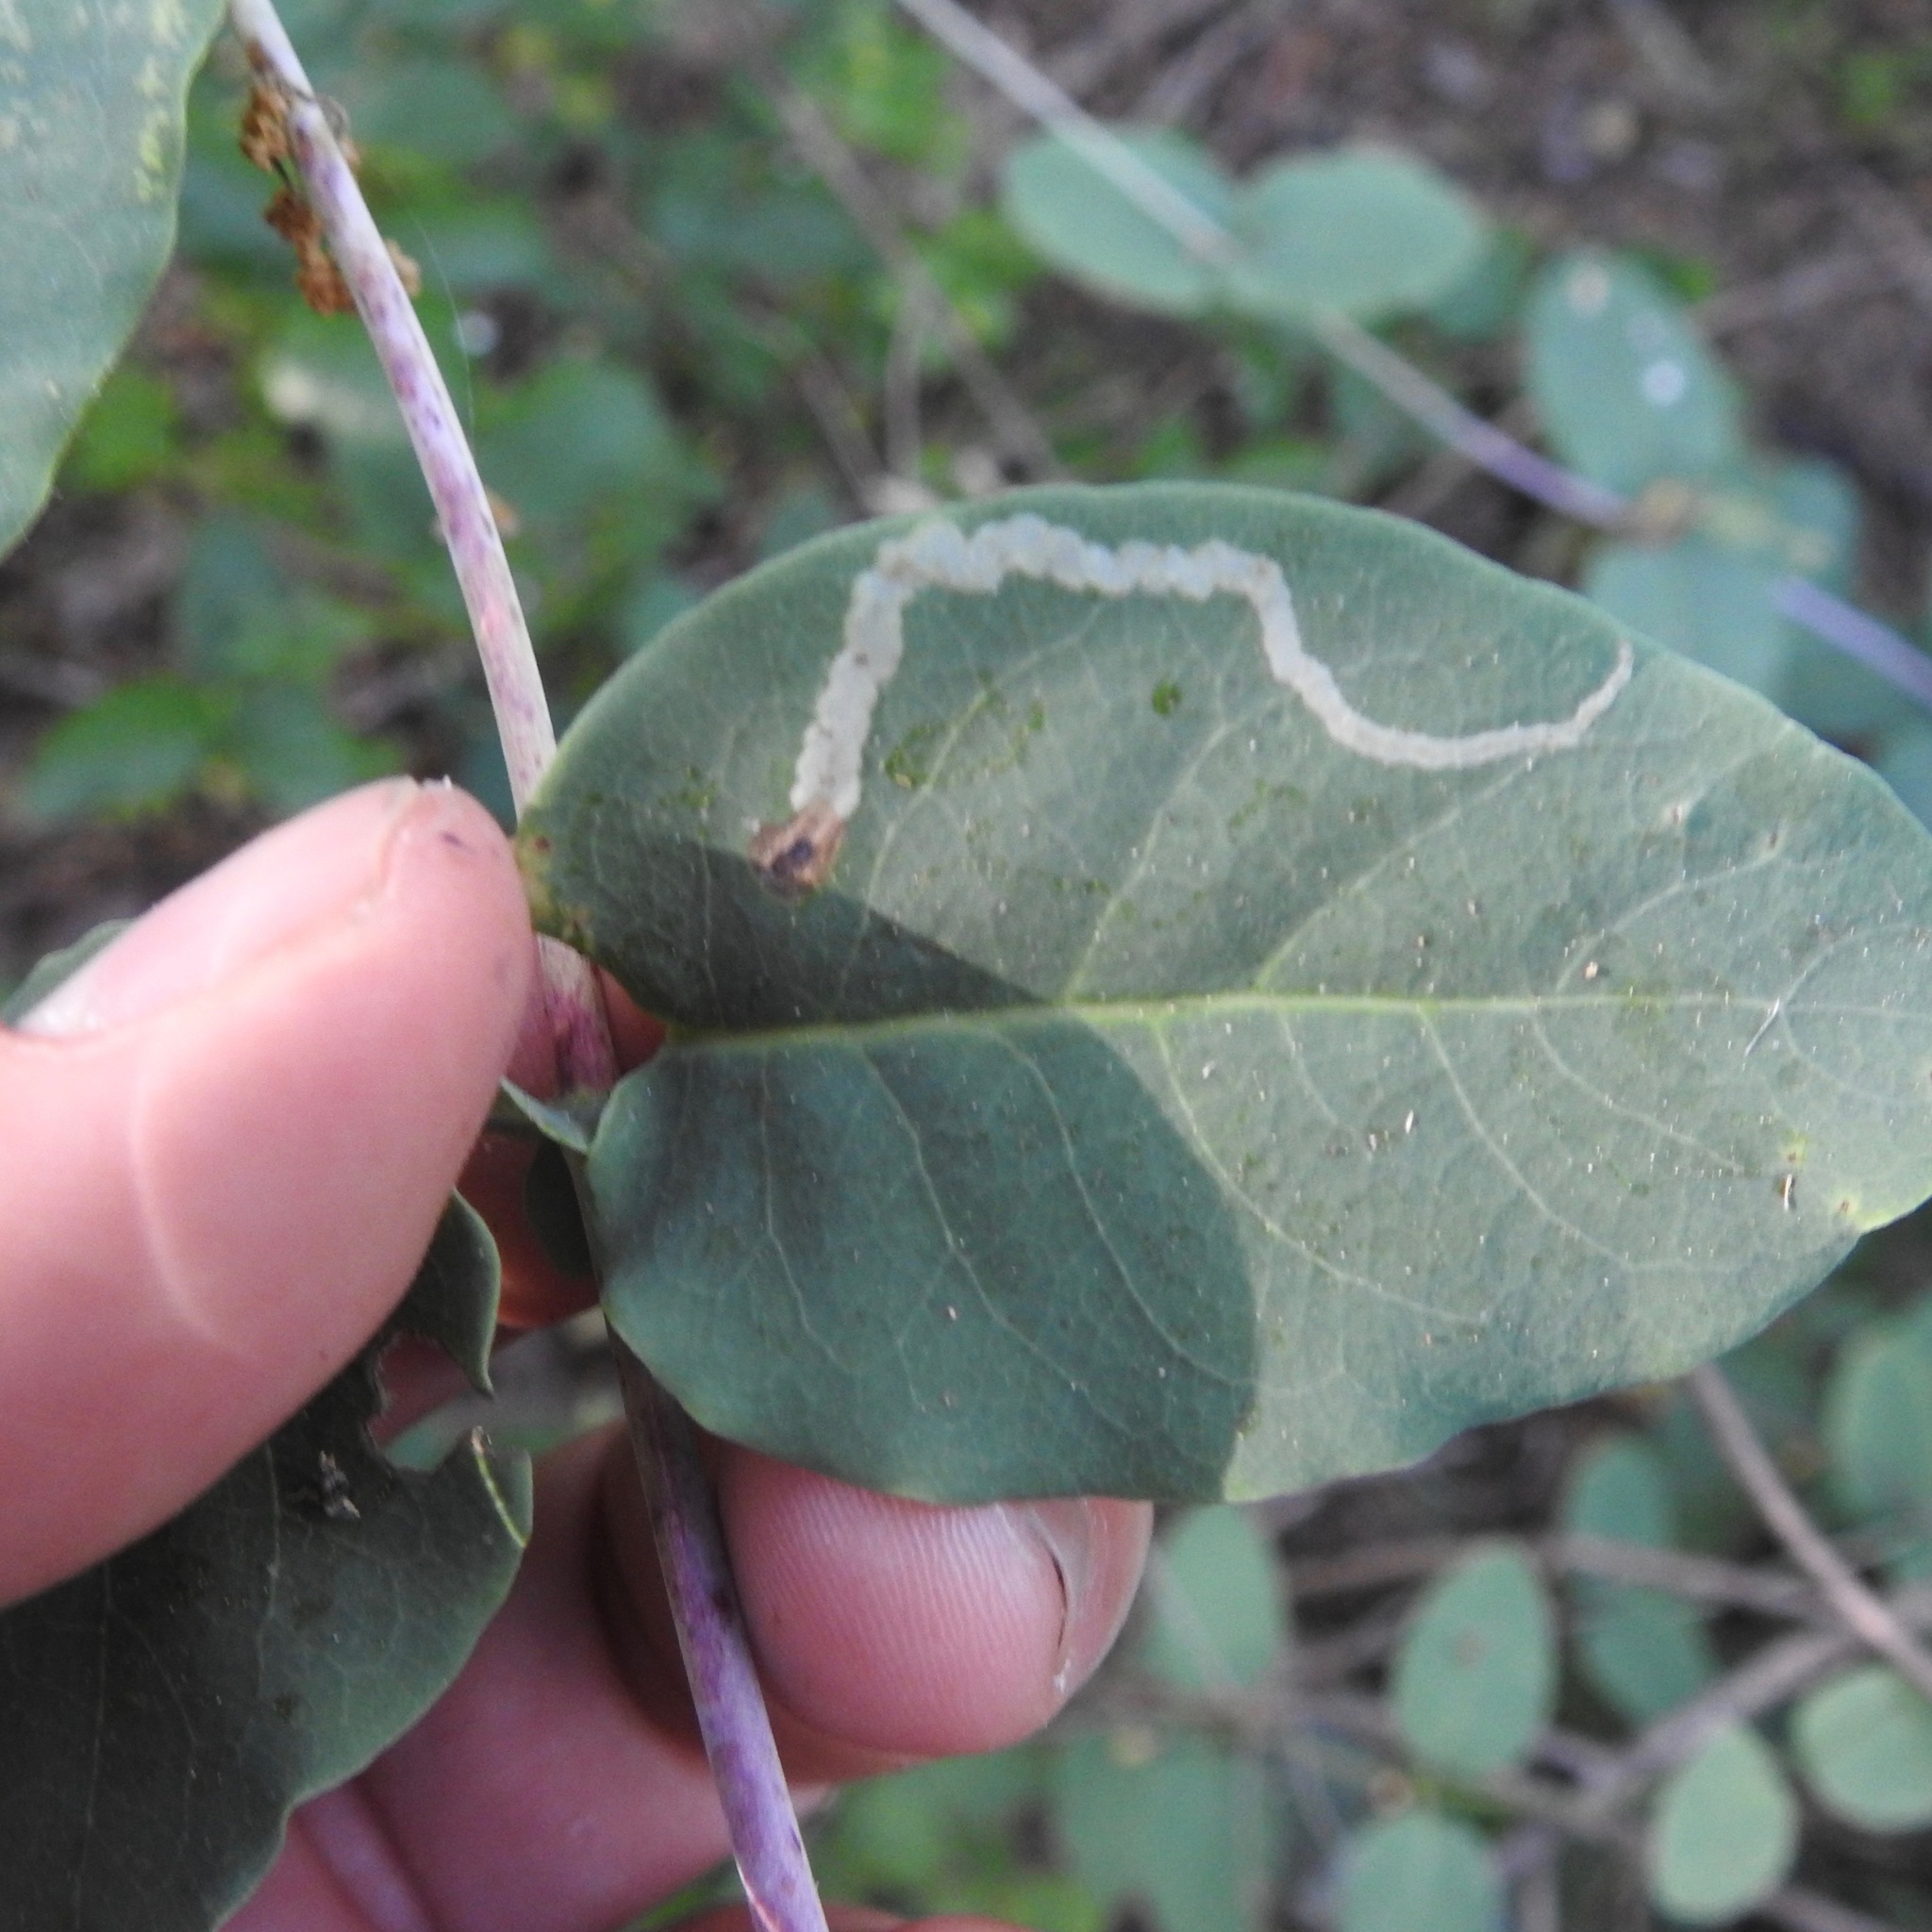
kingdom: Plantae
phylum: Tracheophyta
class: Magnoliopsida
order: Dipsacales
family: Caprifoliaceae
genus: Lonicera
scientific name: Lonicera hispidula
